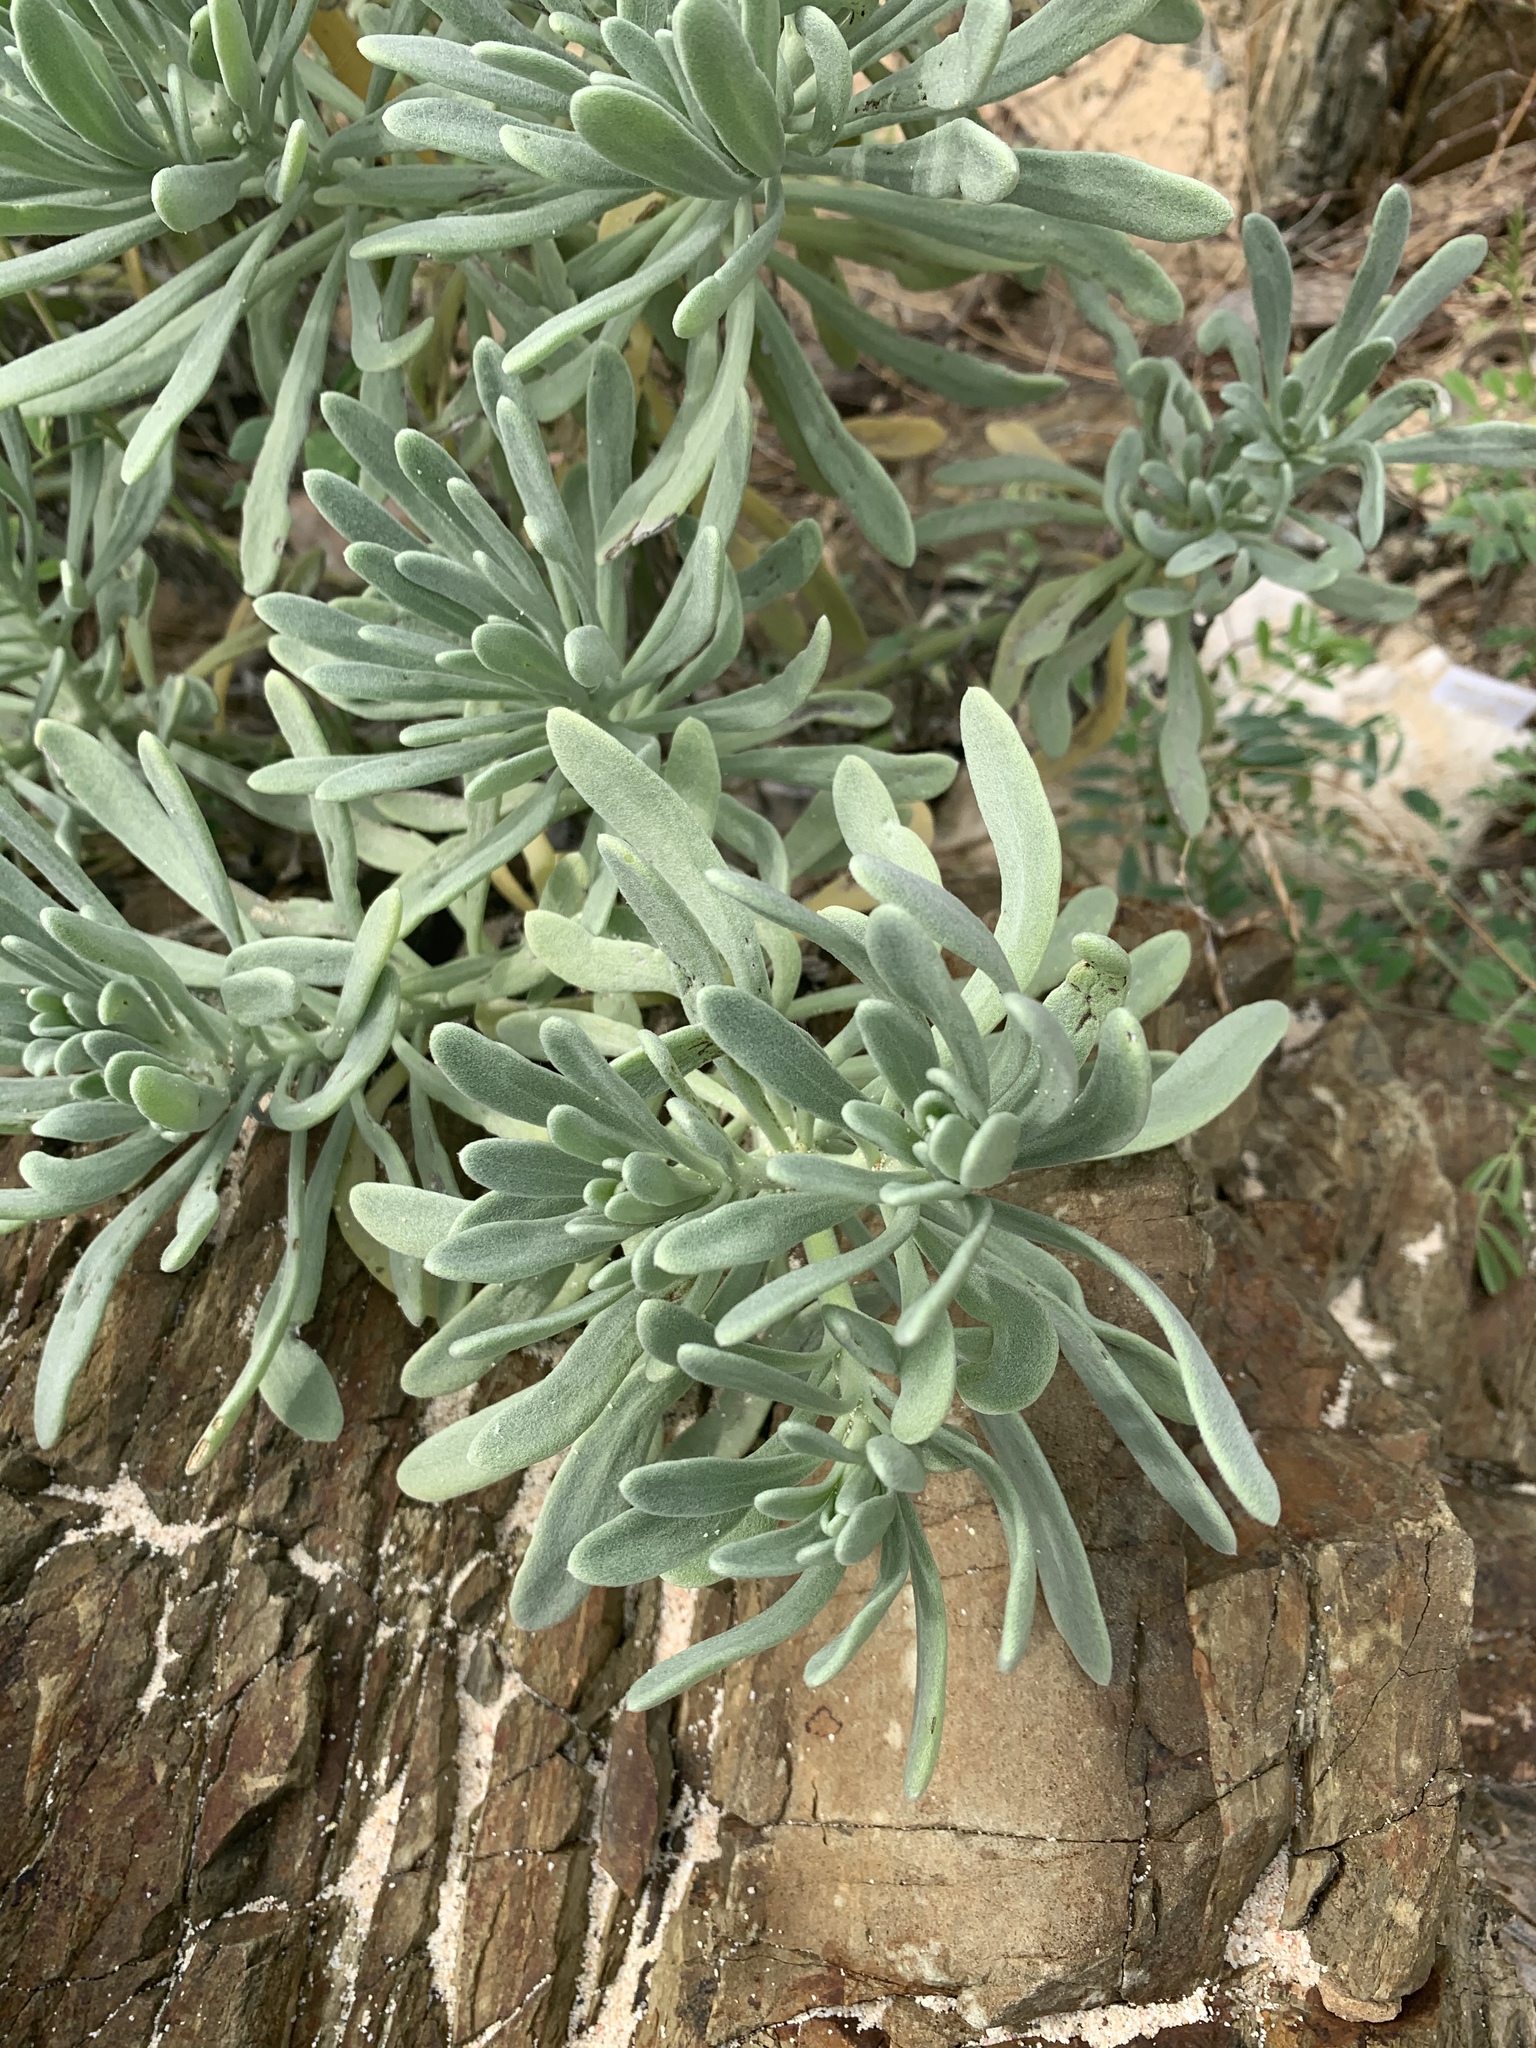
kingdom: Plantae
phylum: Tracheophyta
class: Magnoliopsida
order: Boraginales
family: Heliotropiaceae
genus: Tournefortia
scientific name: Tournefortia gnaphalodes
